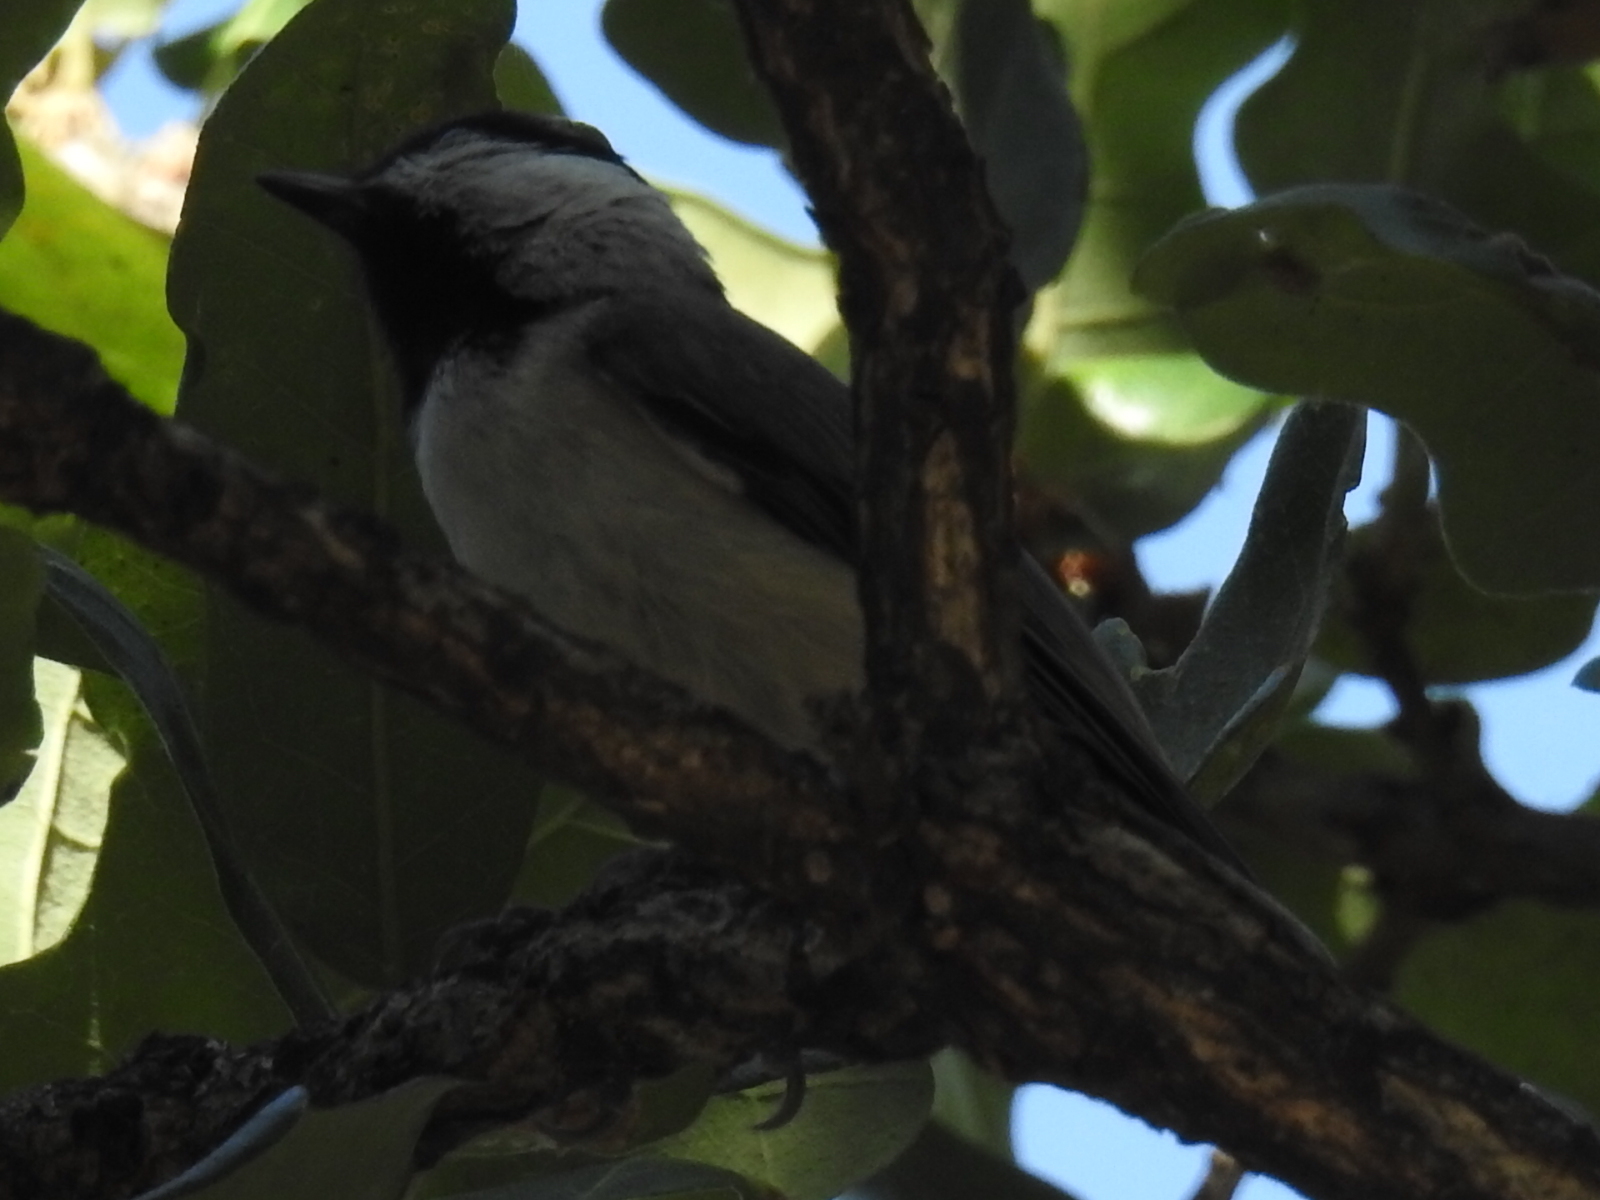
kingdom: Animalia
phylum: Chordata
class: Aves
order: Passeriformes
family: Paridae
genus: Poecile
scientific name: Poecile carolinensis
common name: Carolina chickadee
